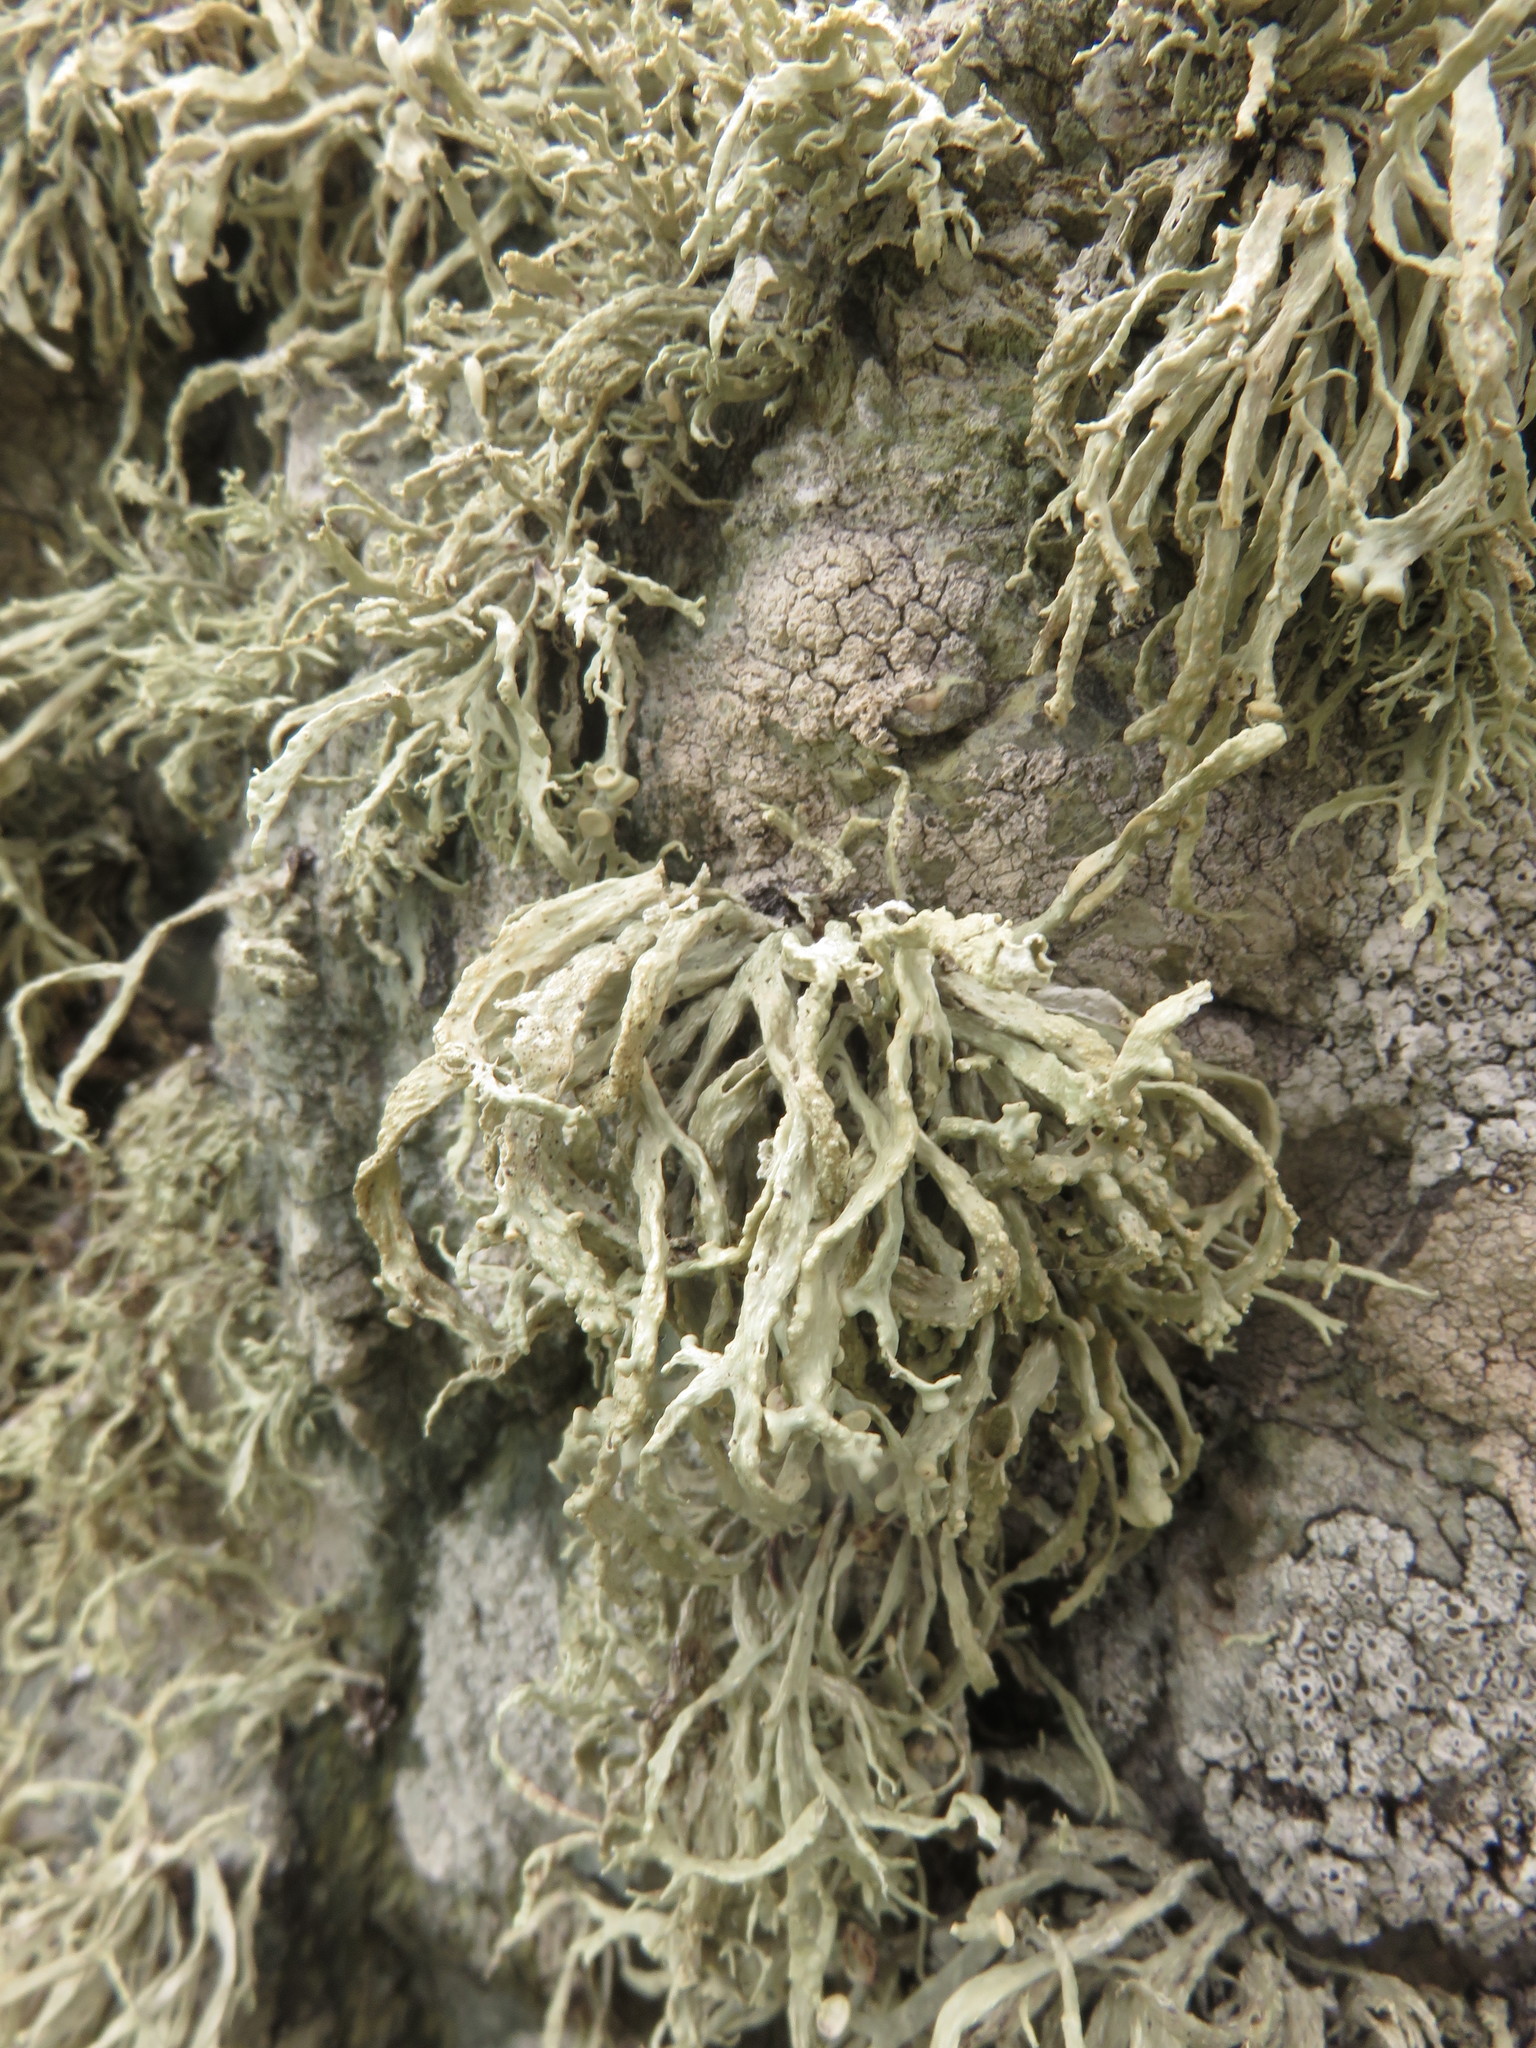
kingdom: Fungi
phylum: Ascomycota
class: Lecanoromycetes
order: Lecanorales
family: Ramalinaceae
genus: Ramalina
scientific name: Ramalina siliquosa
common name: Sea ivory
